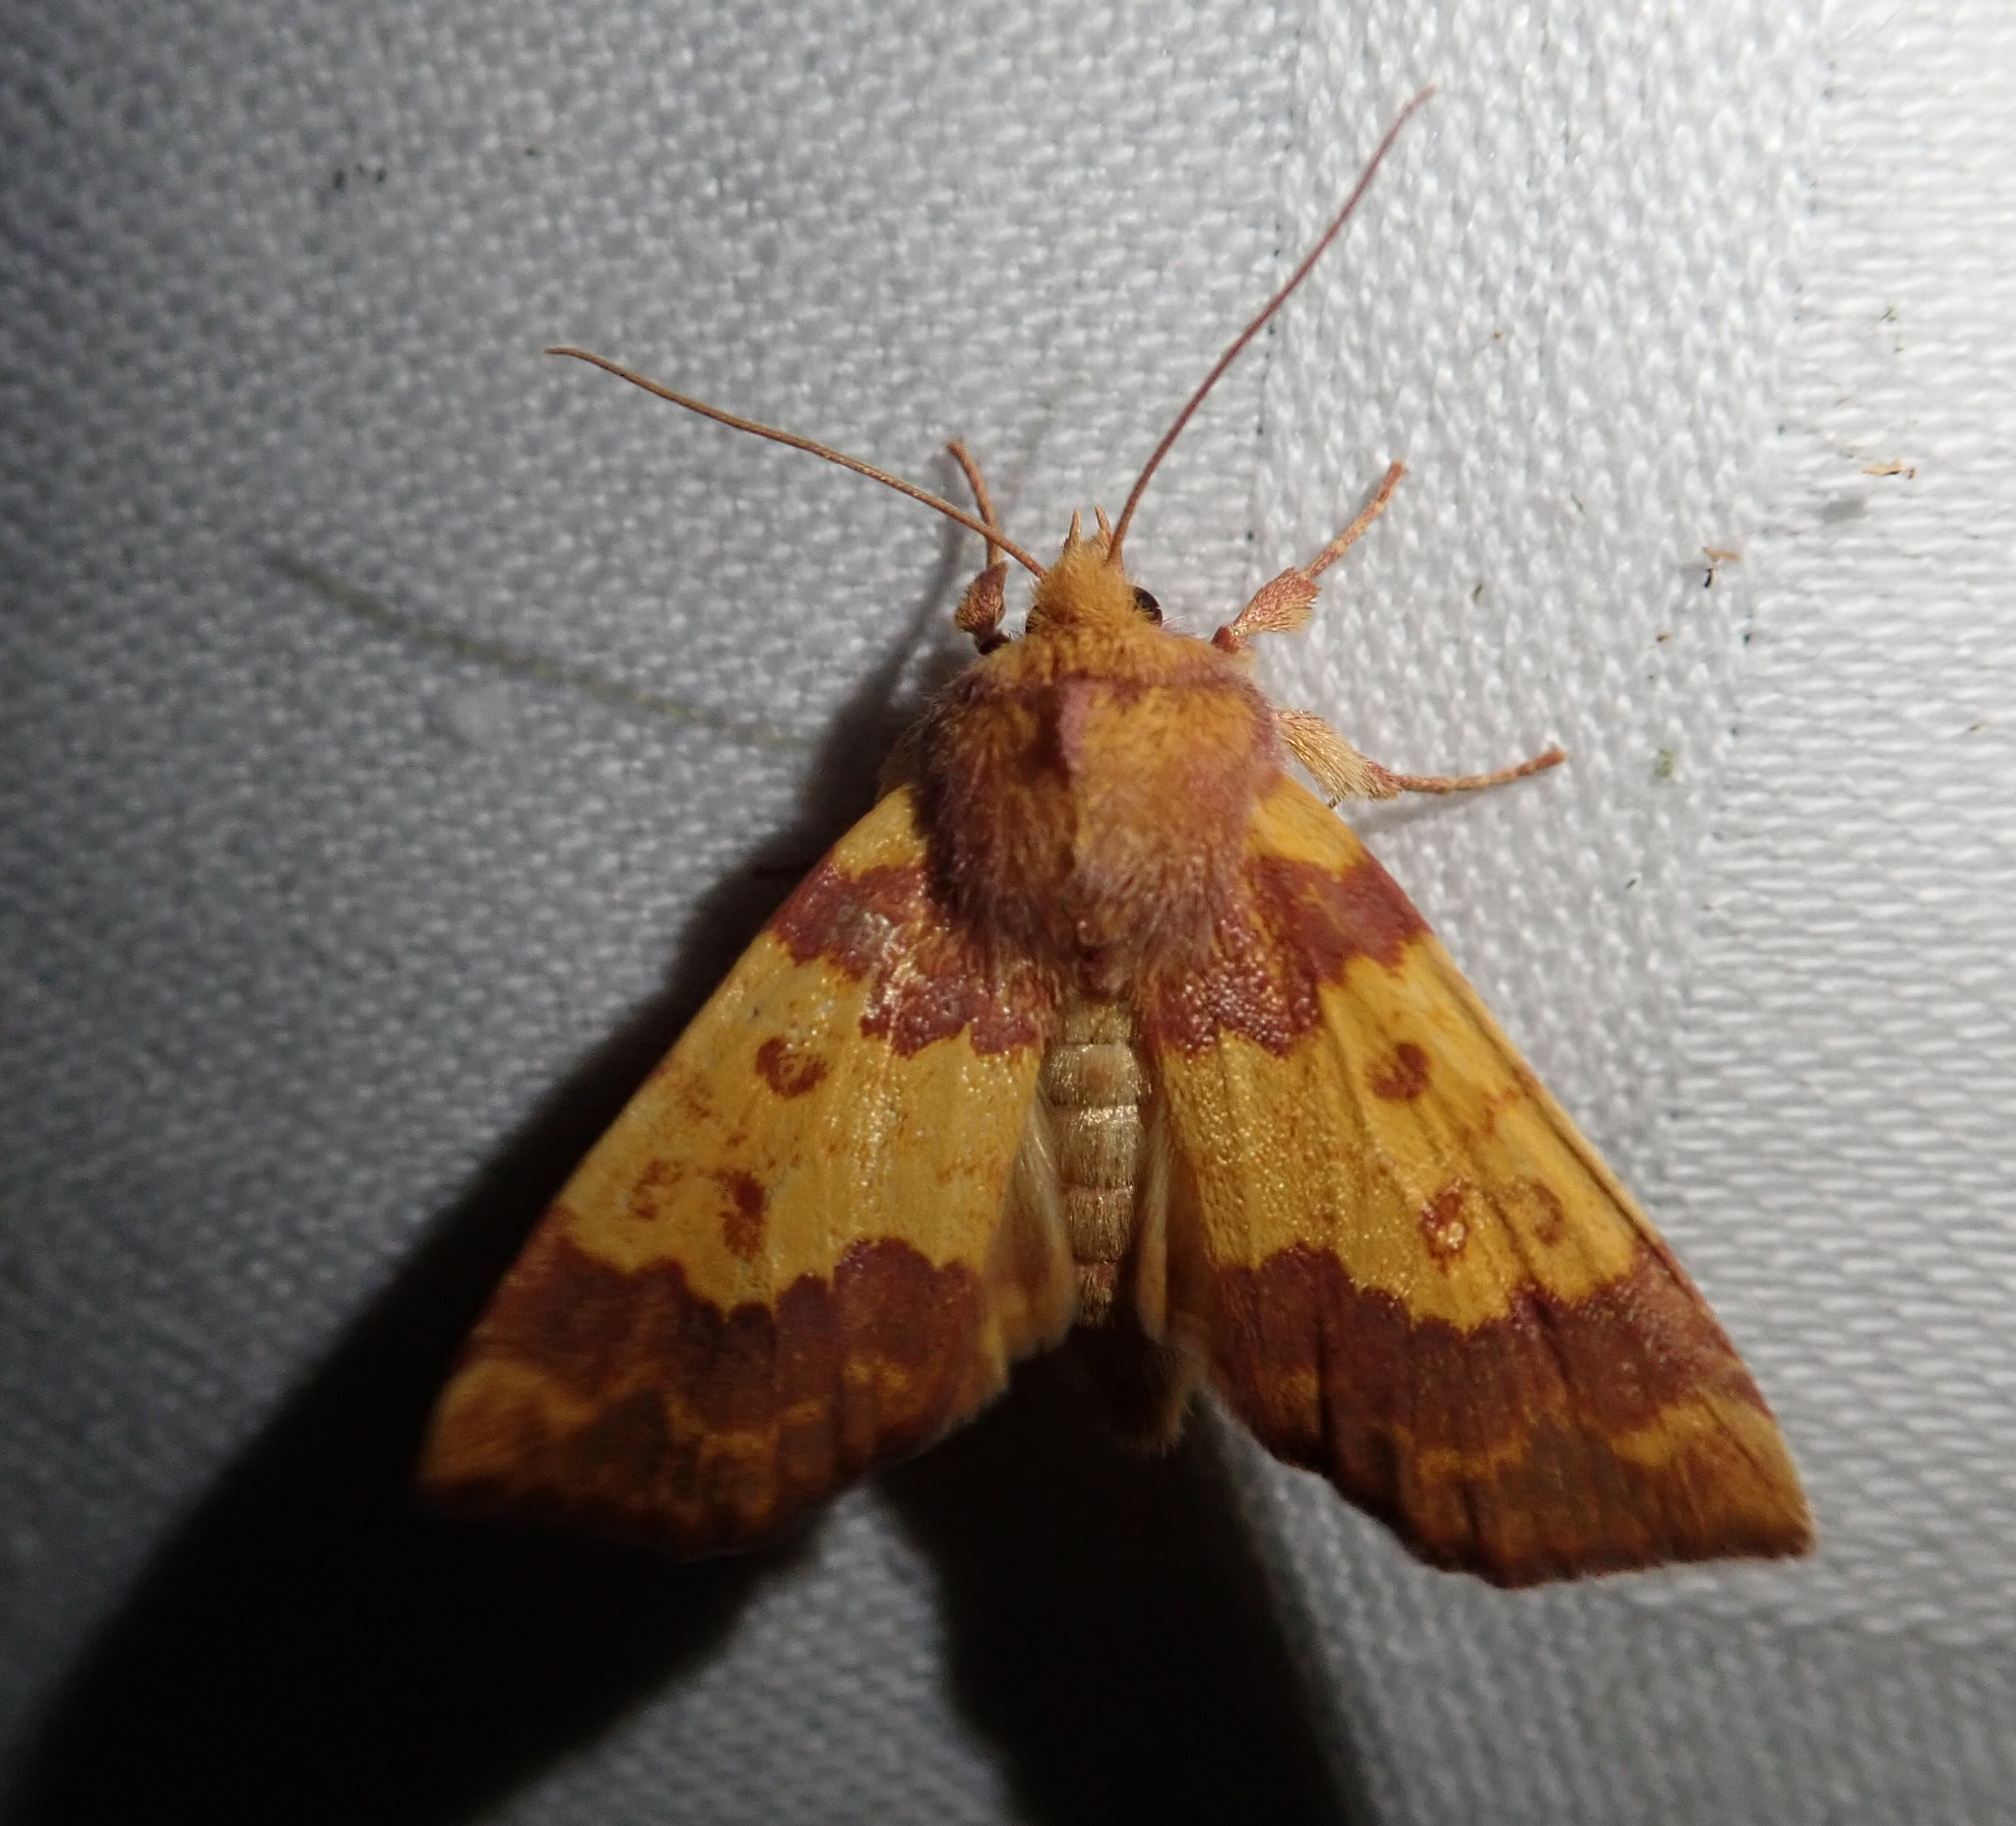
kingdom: Animalia
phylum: Arthropoda
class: Insecta
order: Lepidoptera
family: Noctuidae
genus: Tiliacea
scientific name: Tiliacea aurago
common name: Barred sallow
